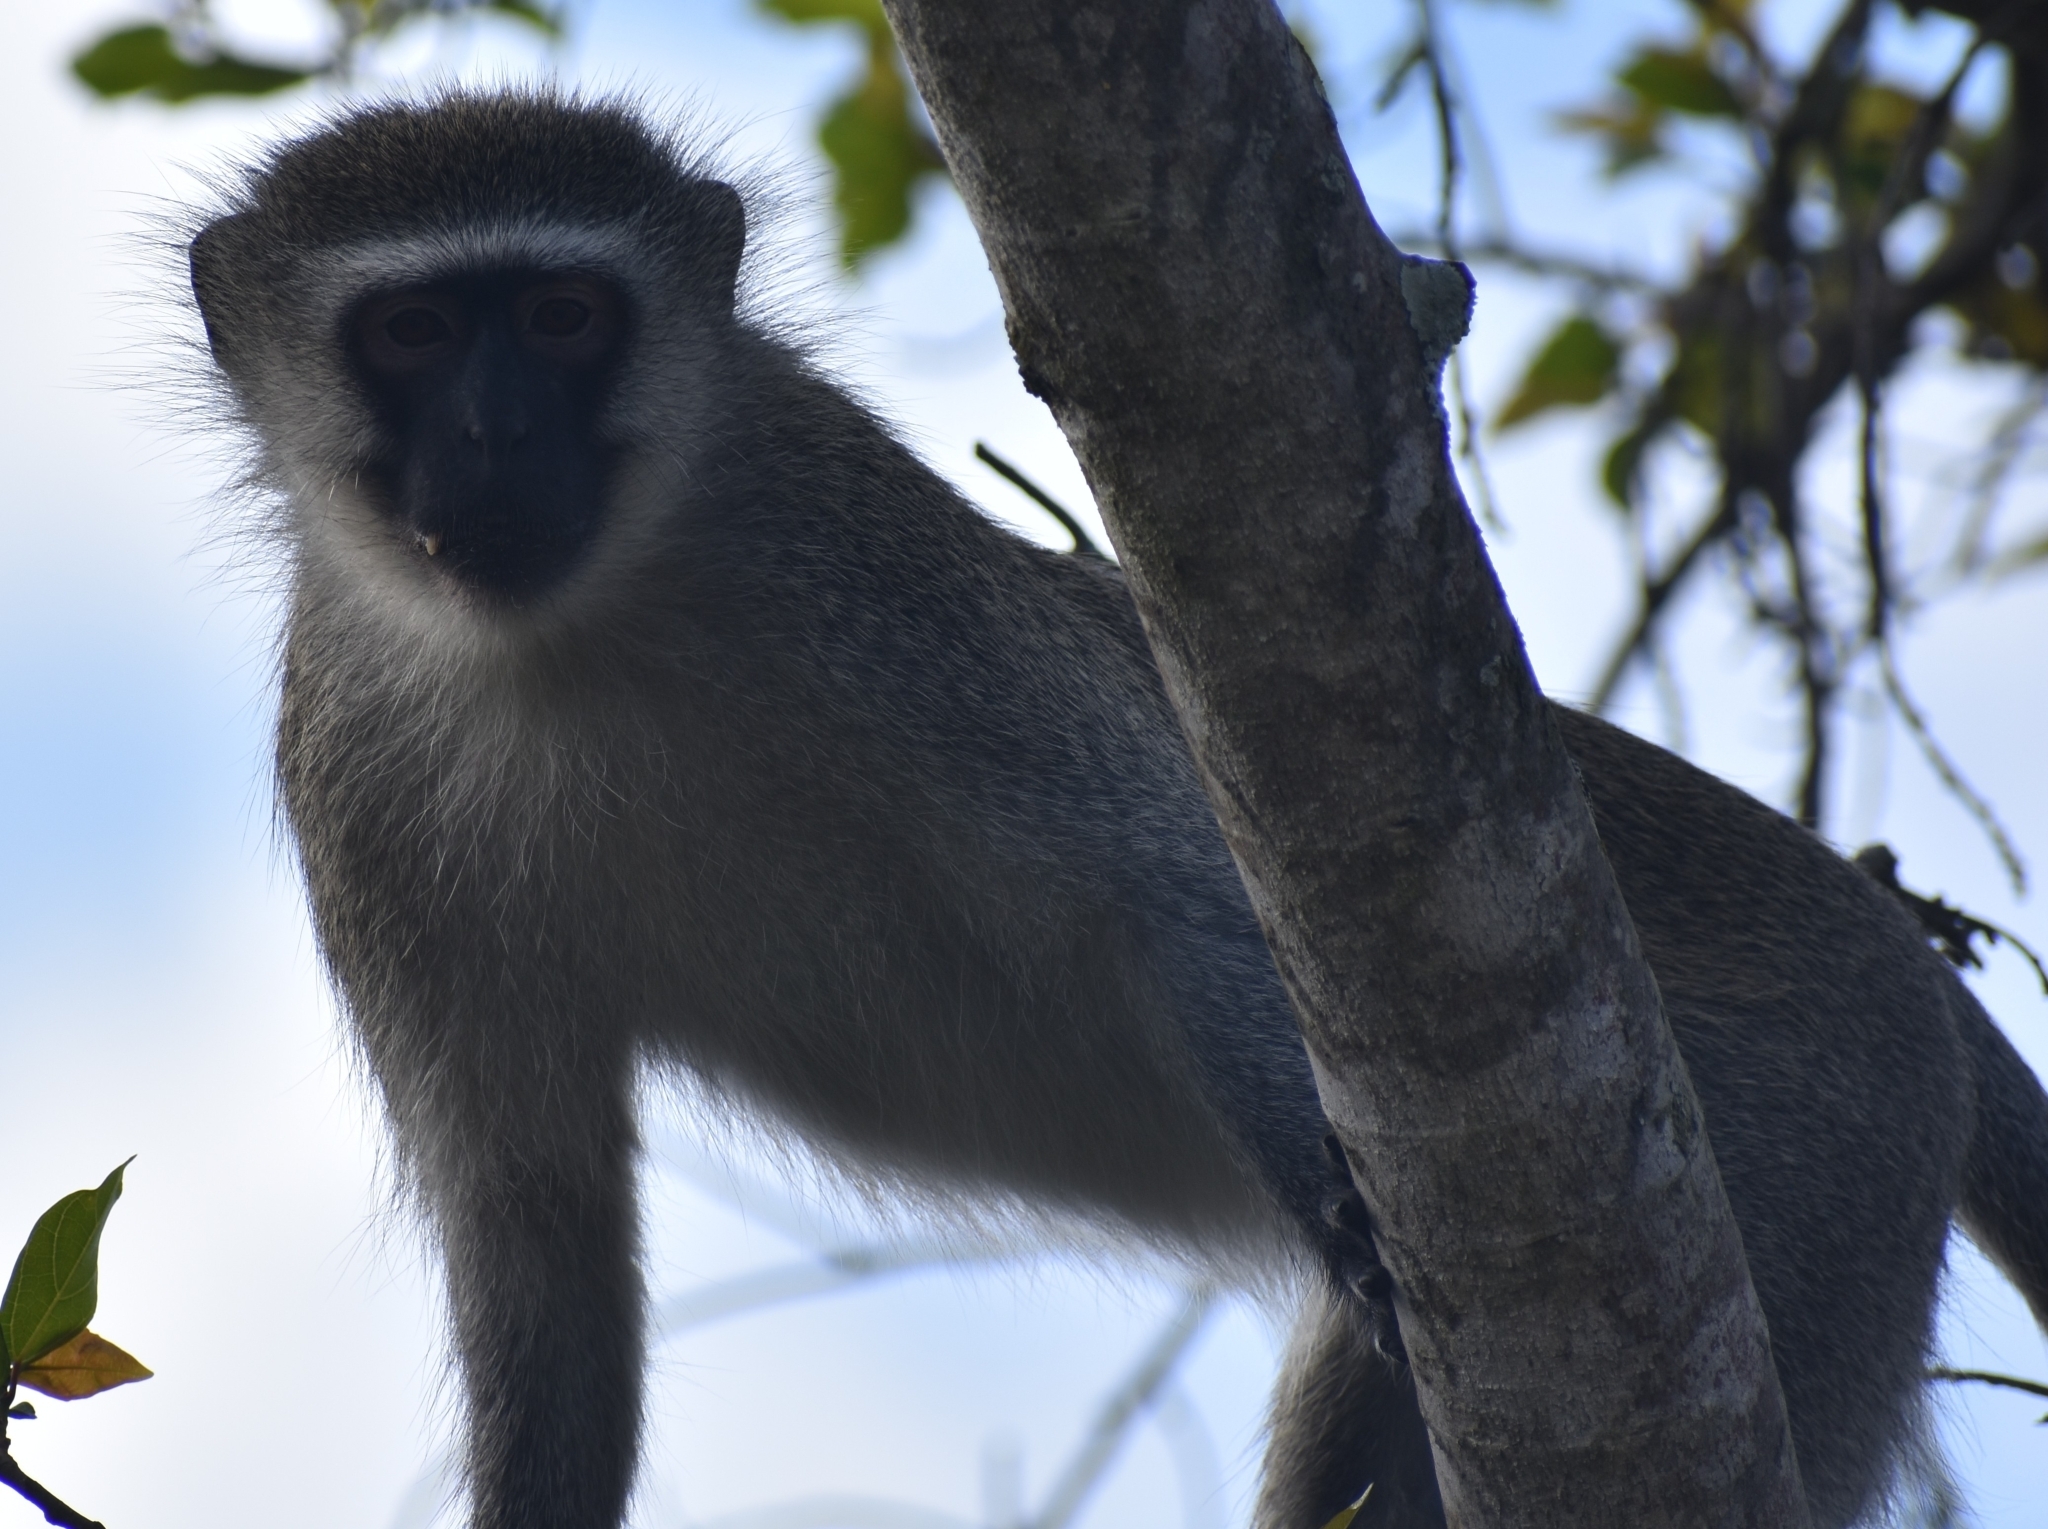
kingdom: Animalia
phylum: Chordata
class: Mammalia
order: Primates
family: Cercopithecidae
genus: Chlorocebus
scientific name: Chlorocebus pygerythrus
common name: Vervet monkey
